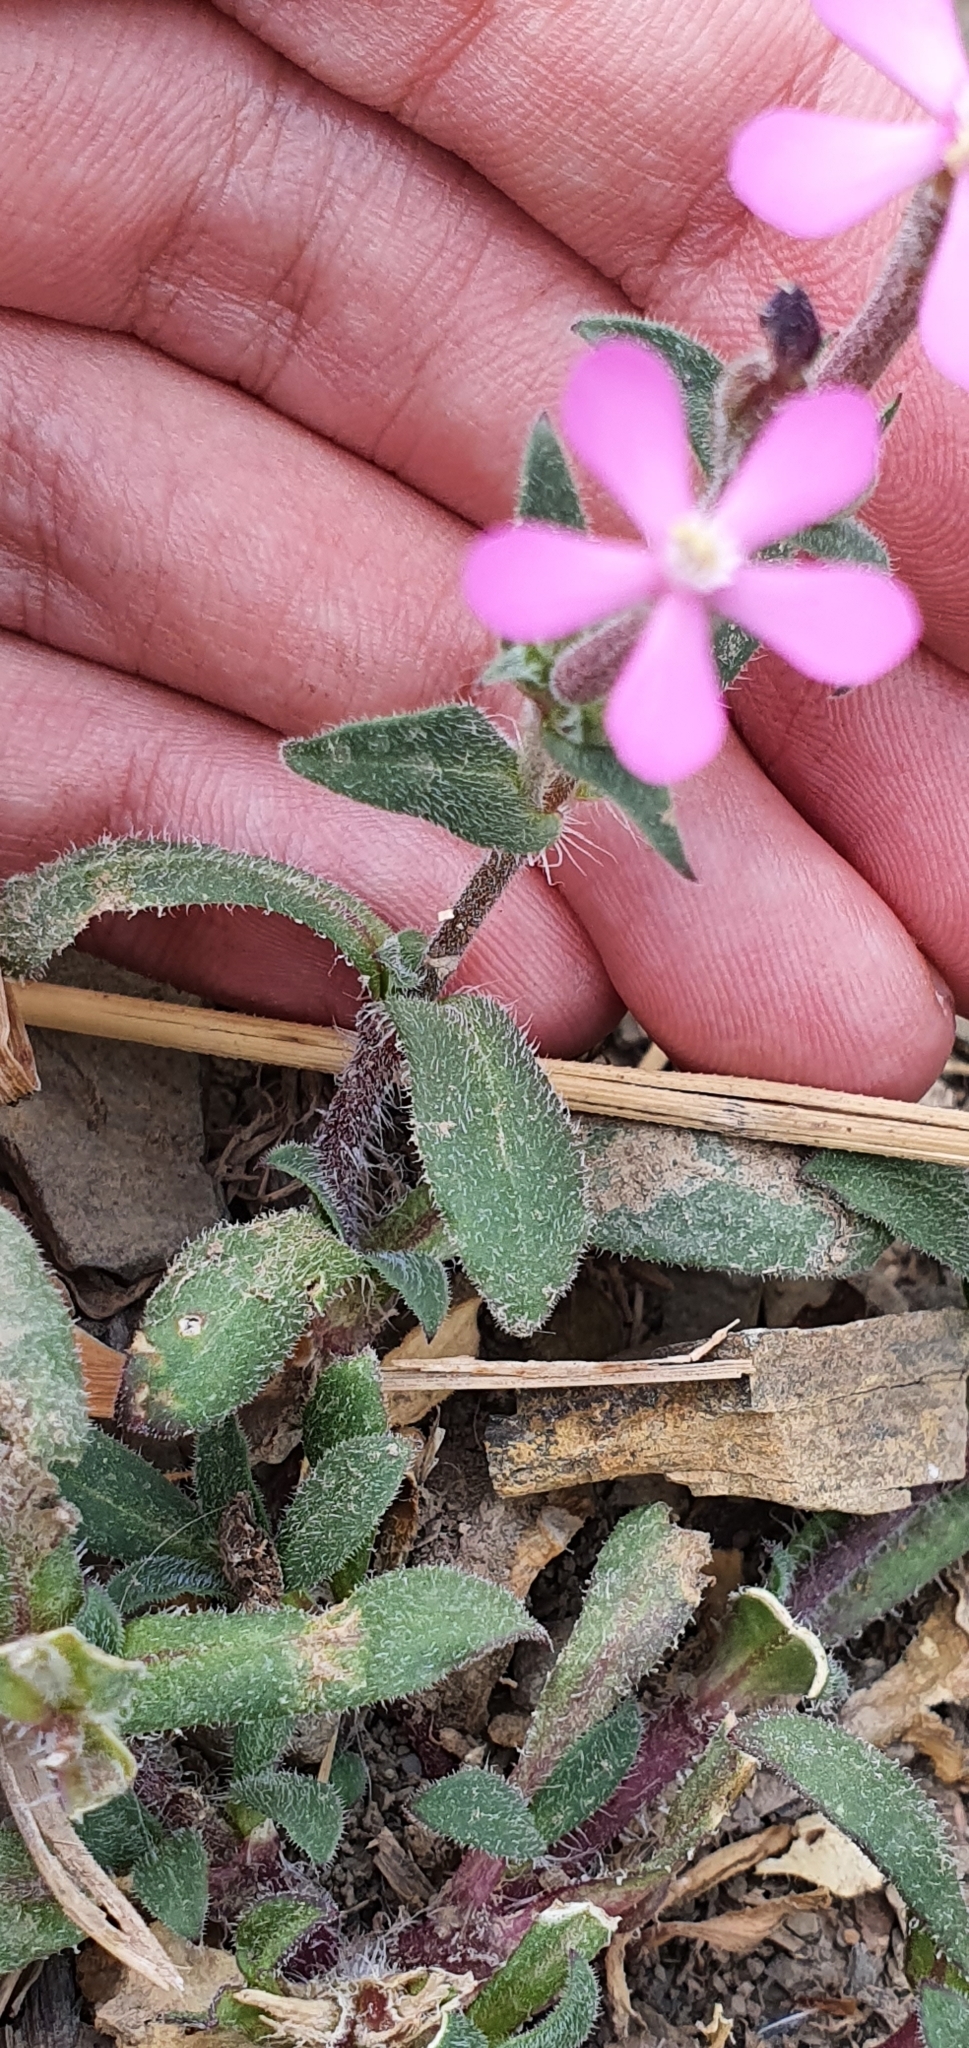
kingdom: Plantae
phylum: Tracheophyta
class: Magnoliopsida
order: Caryophyllales
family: Caryophyllaceae
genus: Silene
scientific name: Silene pseudoatocion
